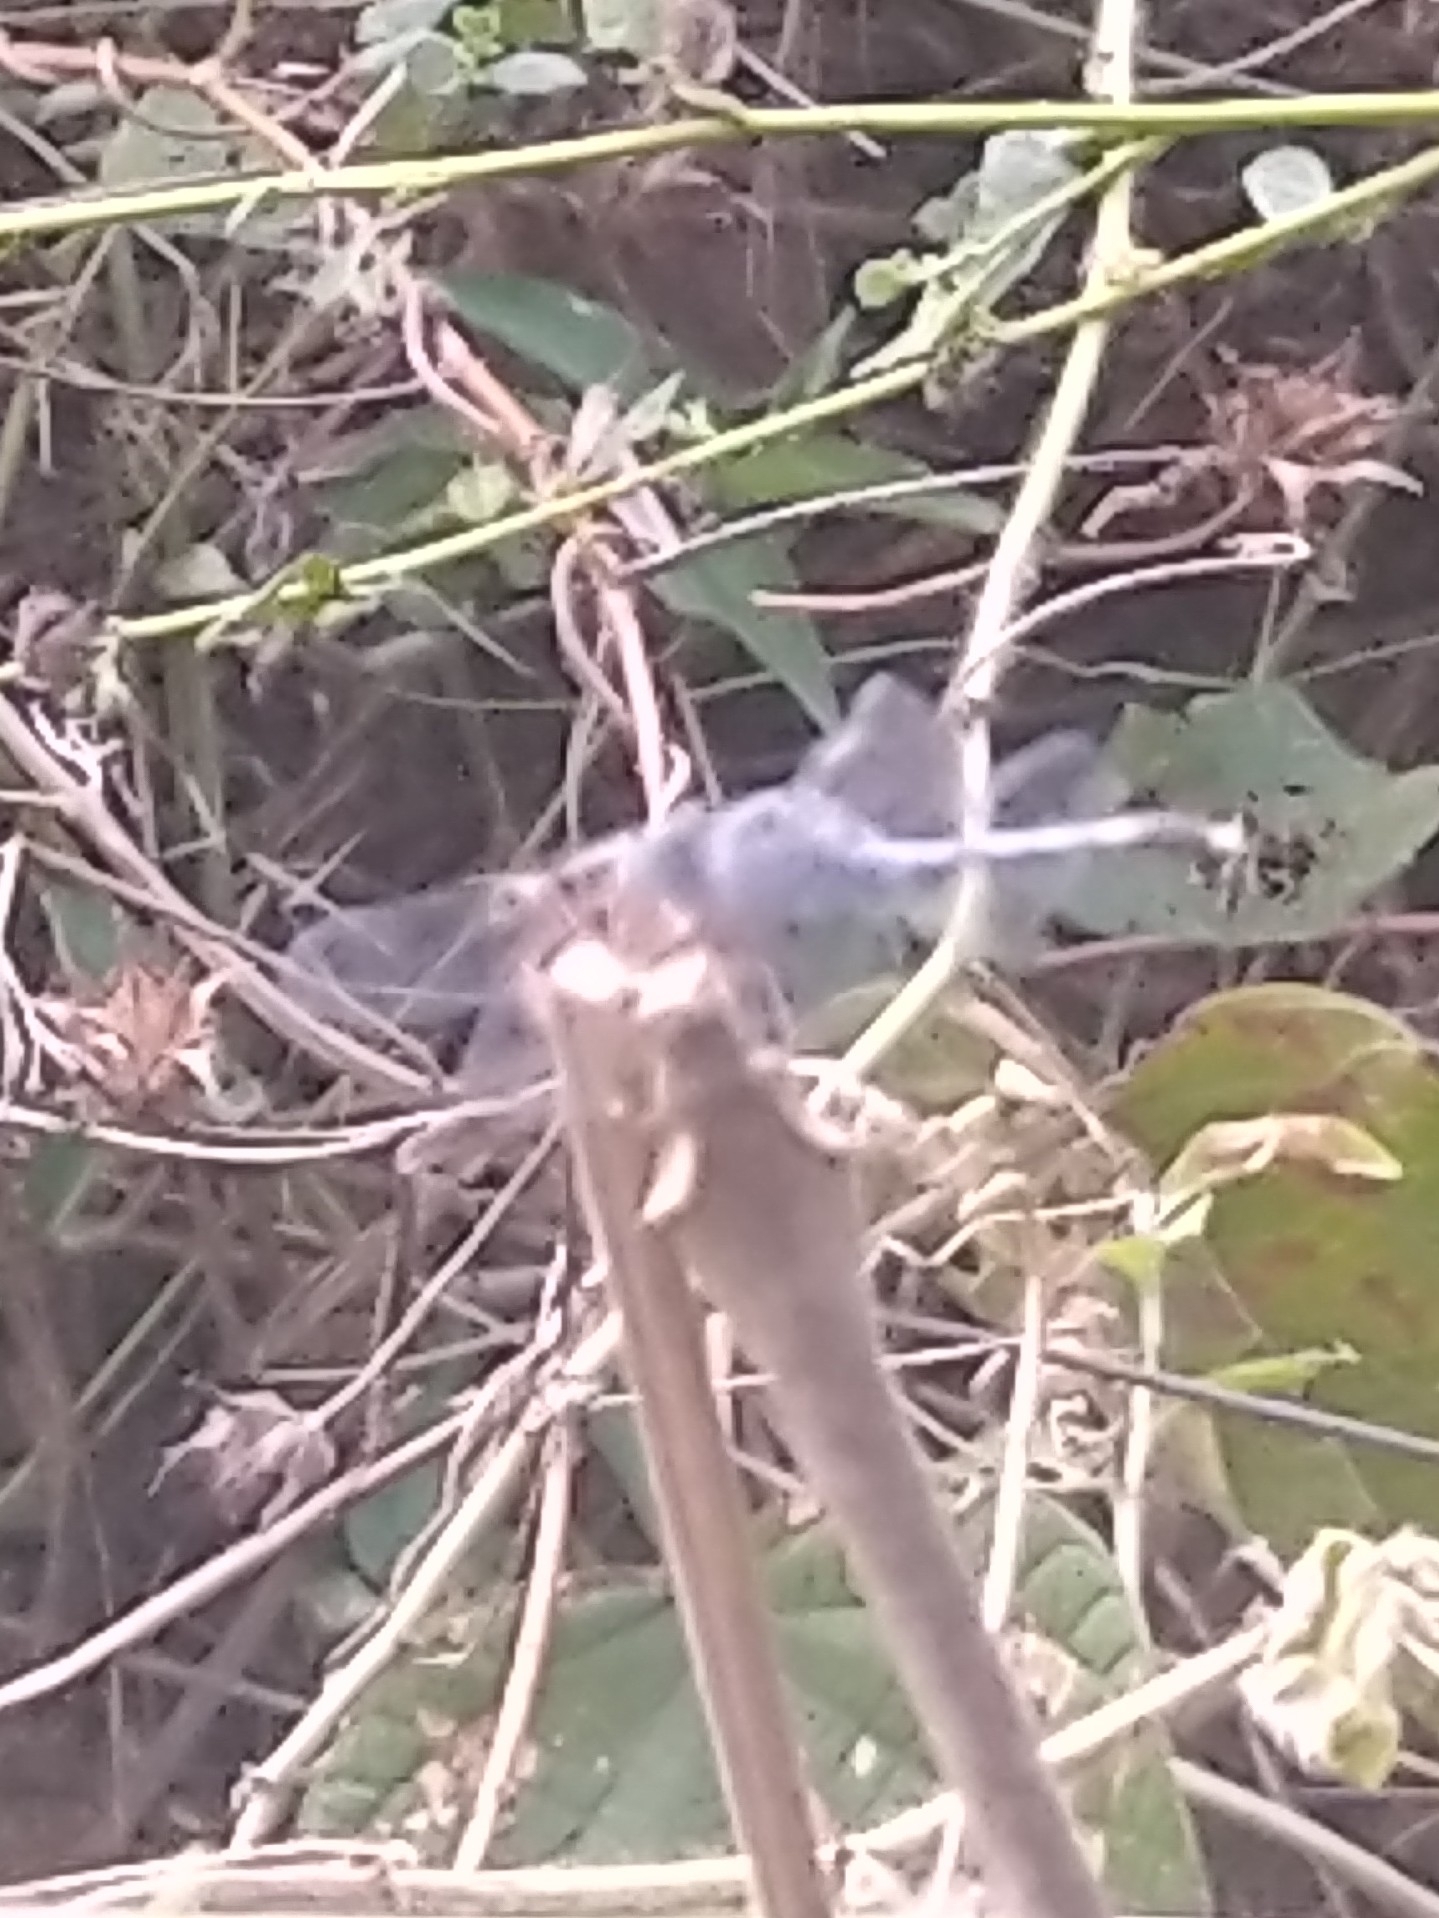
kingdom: Animalia
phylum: Arthropoda
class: Insecta
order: Odonata
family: Libellulidae
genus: Diplacodes
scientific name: Diplacodes trivialis
